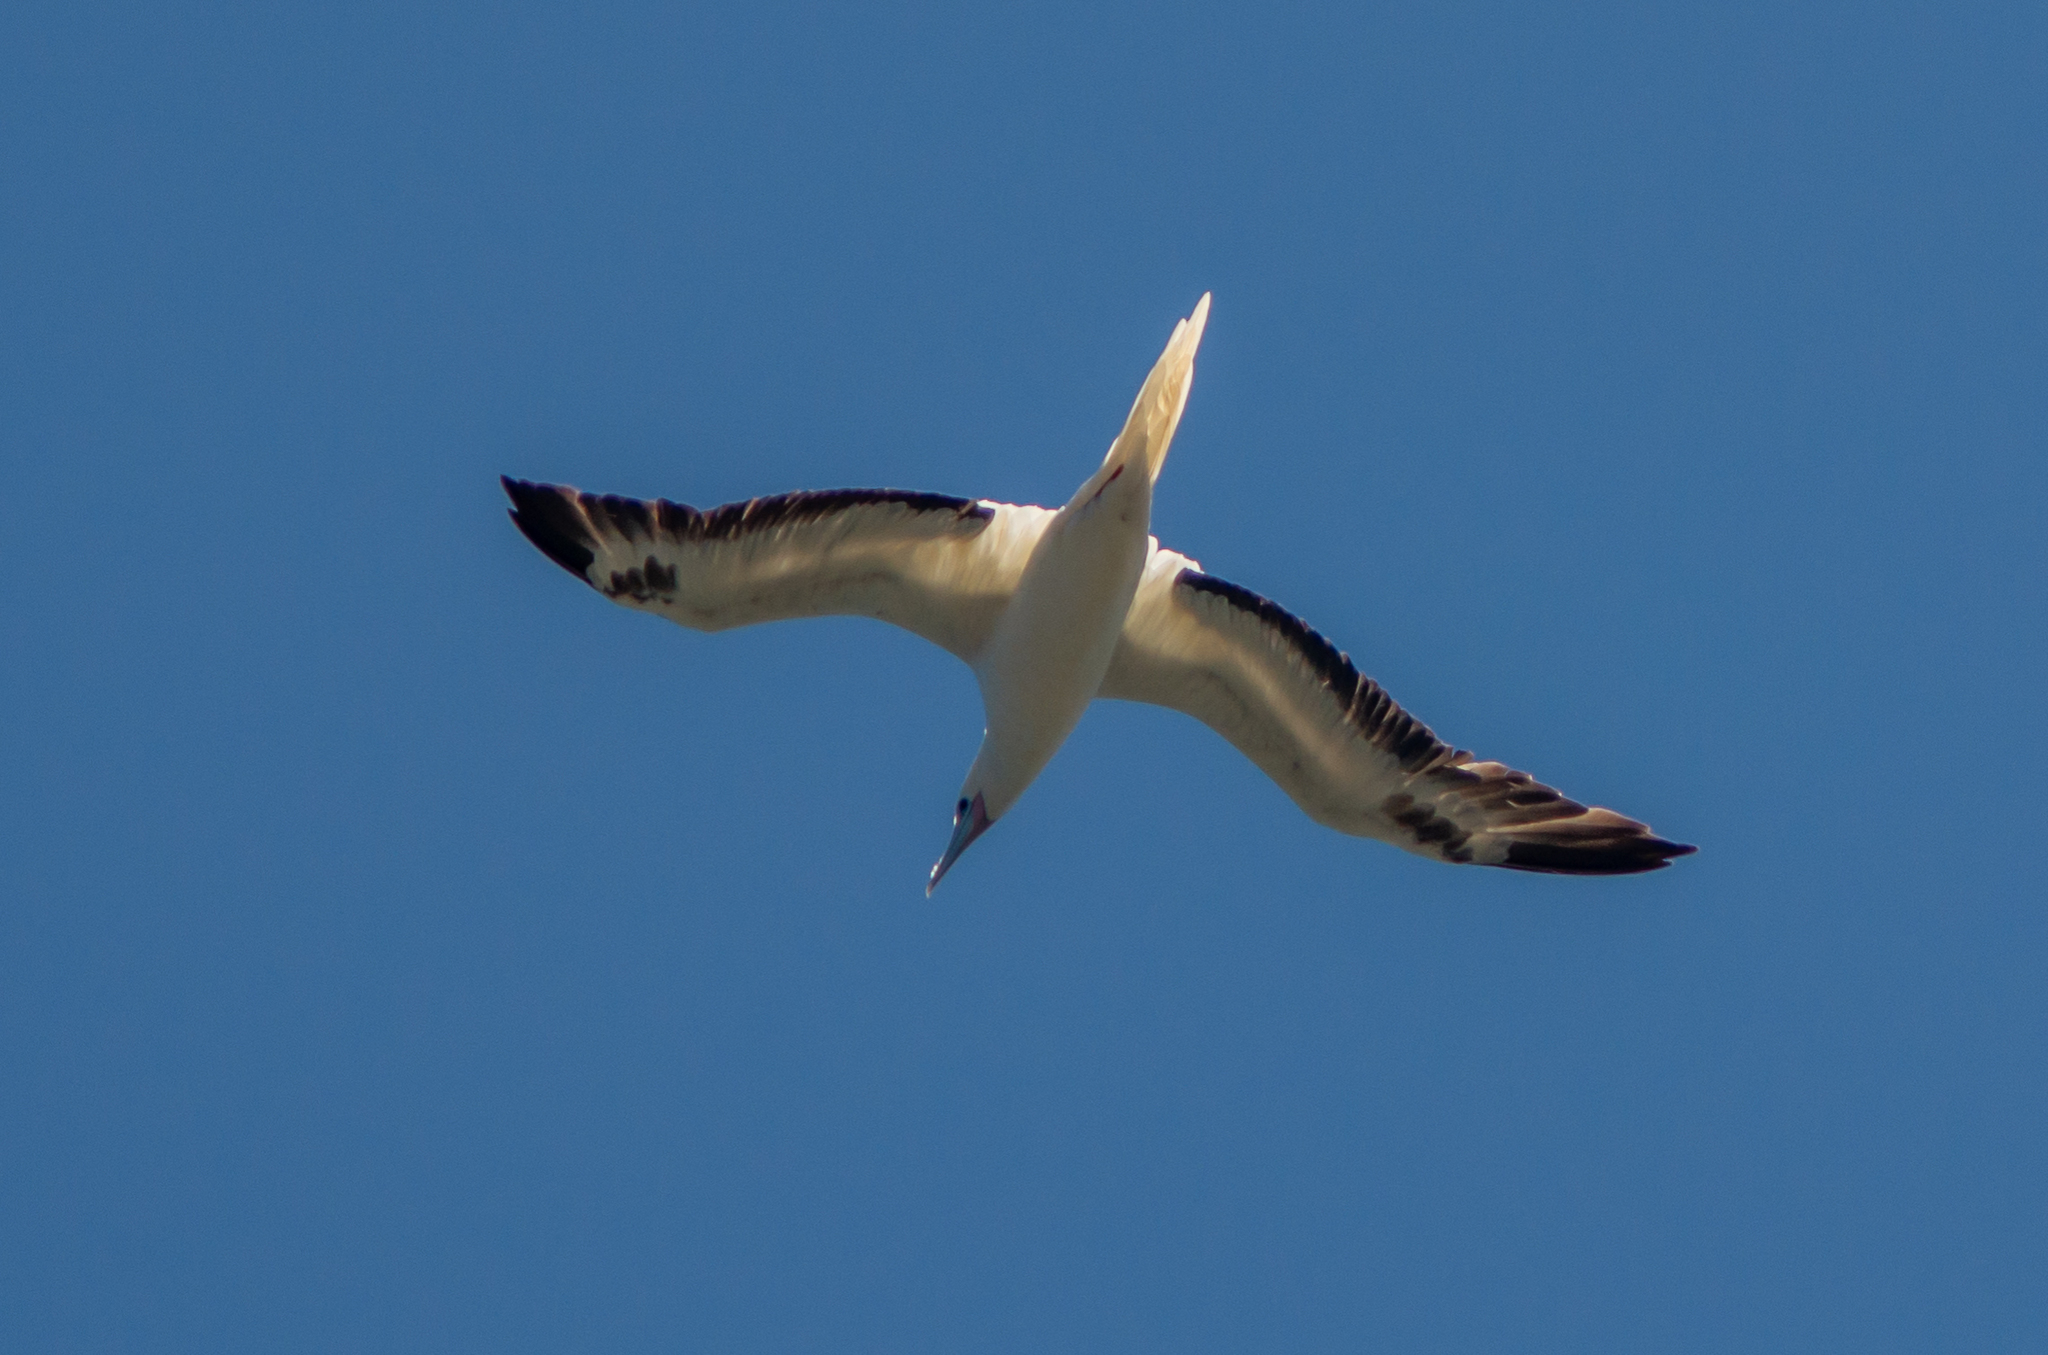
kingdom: Animalia
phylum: Chordata
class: Aves
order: Suliformes
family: Sulidae
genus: Sula
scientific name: Sula sula
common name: Red-footed booby
